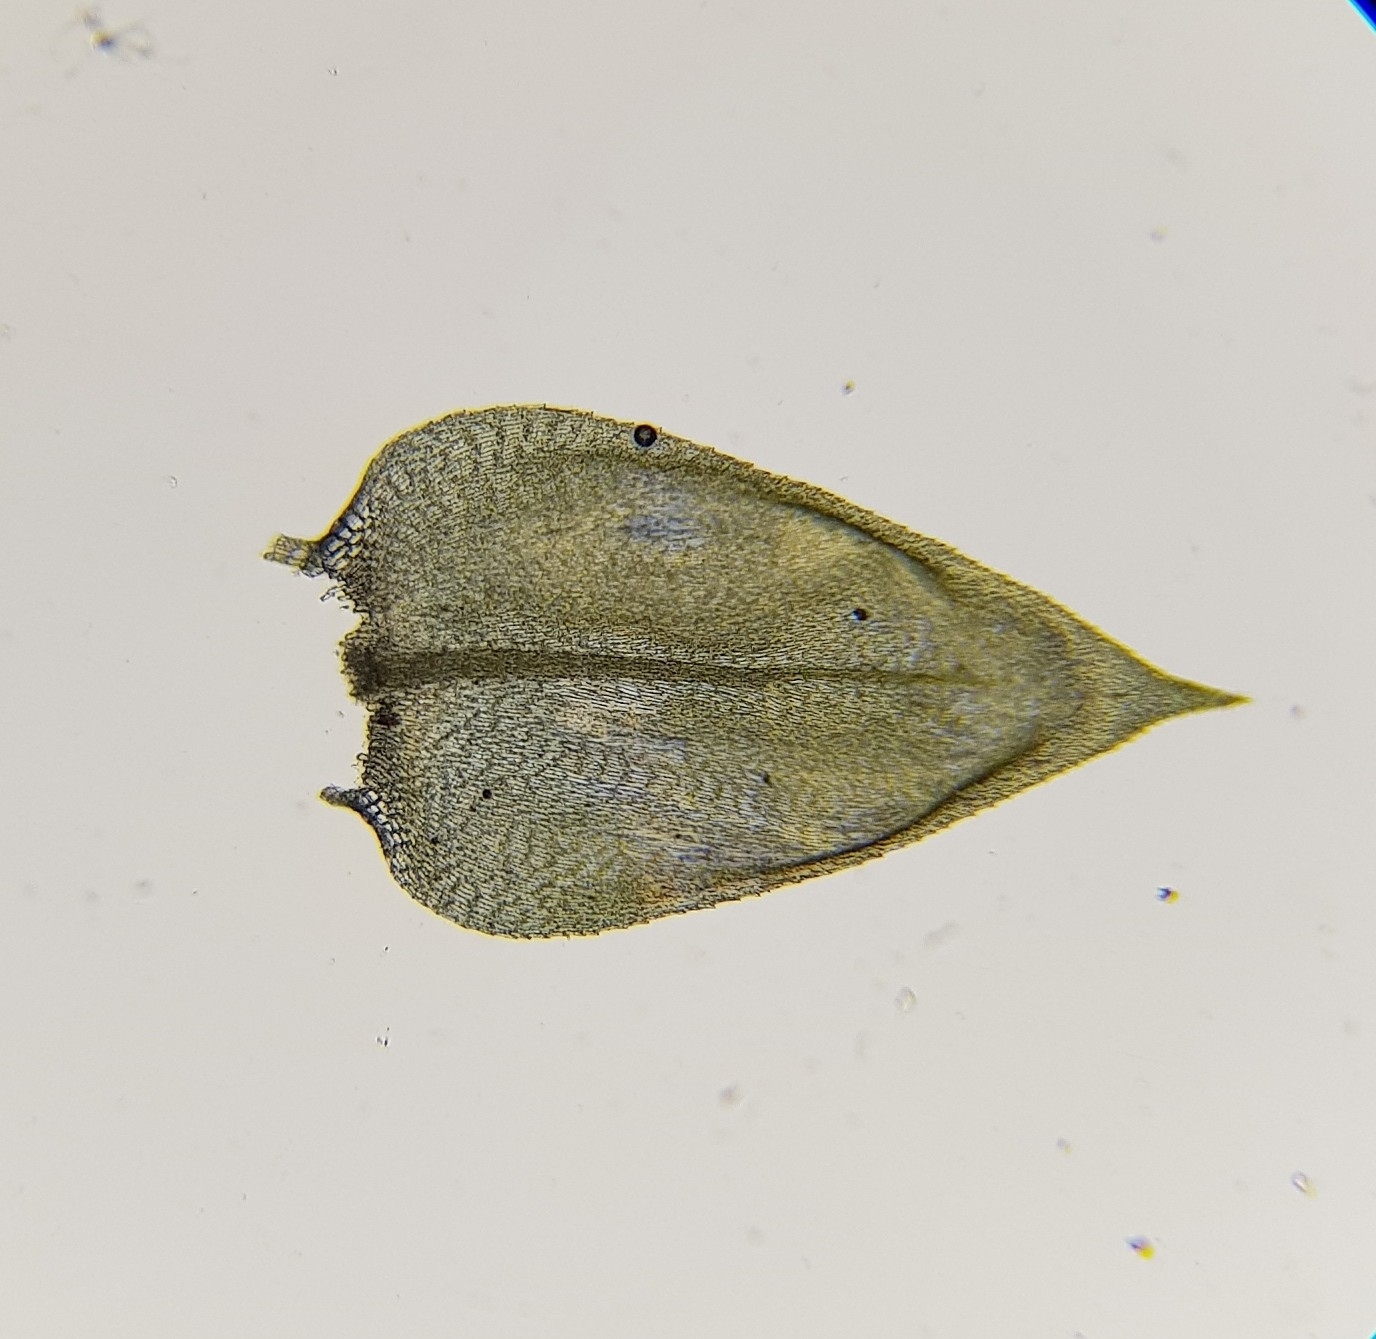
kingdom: Plantae
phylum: Bryophyta
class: Bryopsida
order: Hypnales
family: Brachytheciaceae
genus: Brachythecium
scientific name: Brachythecium rivulare
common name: River ragged moss
